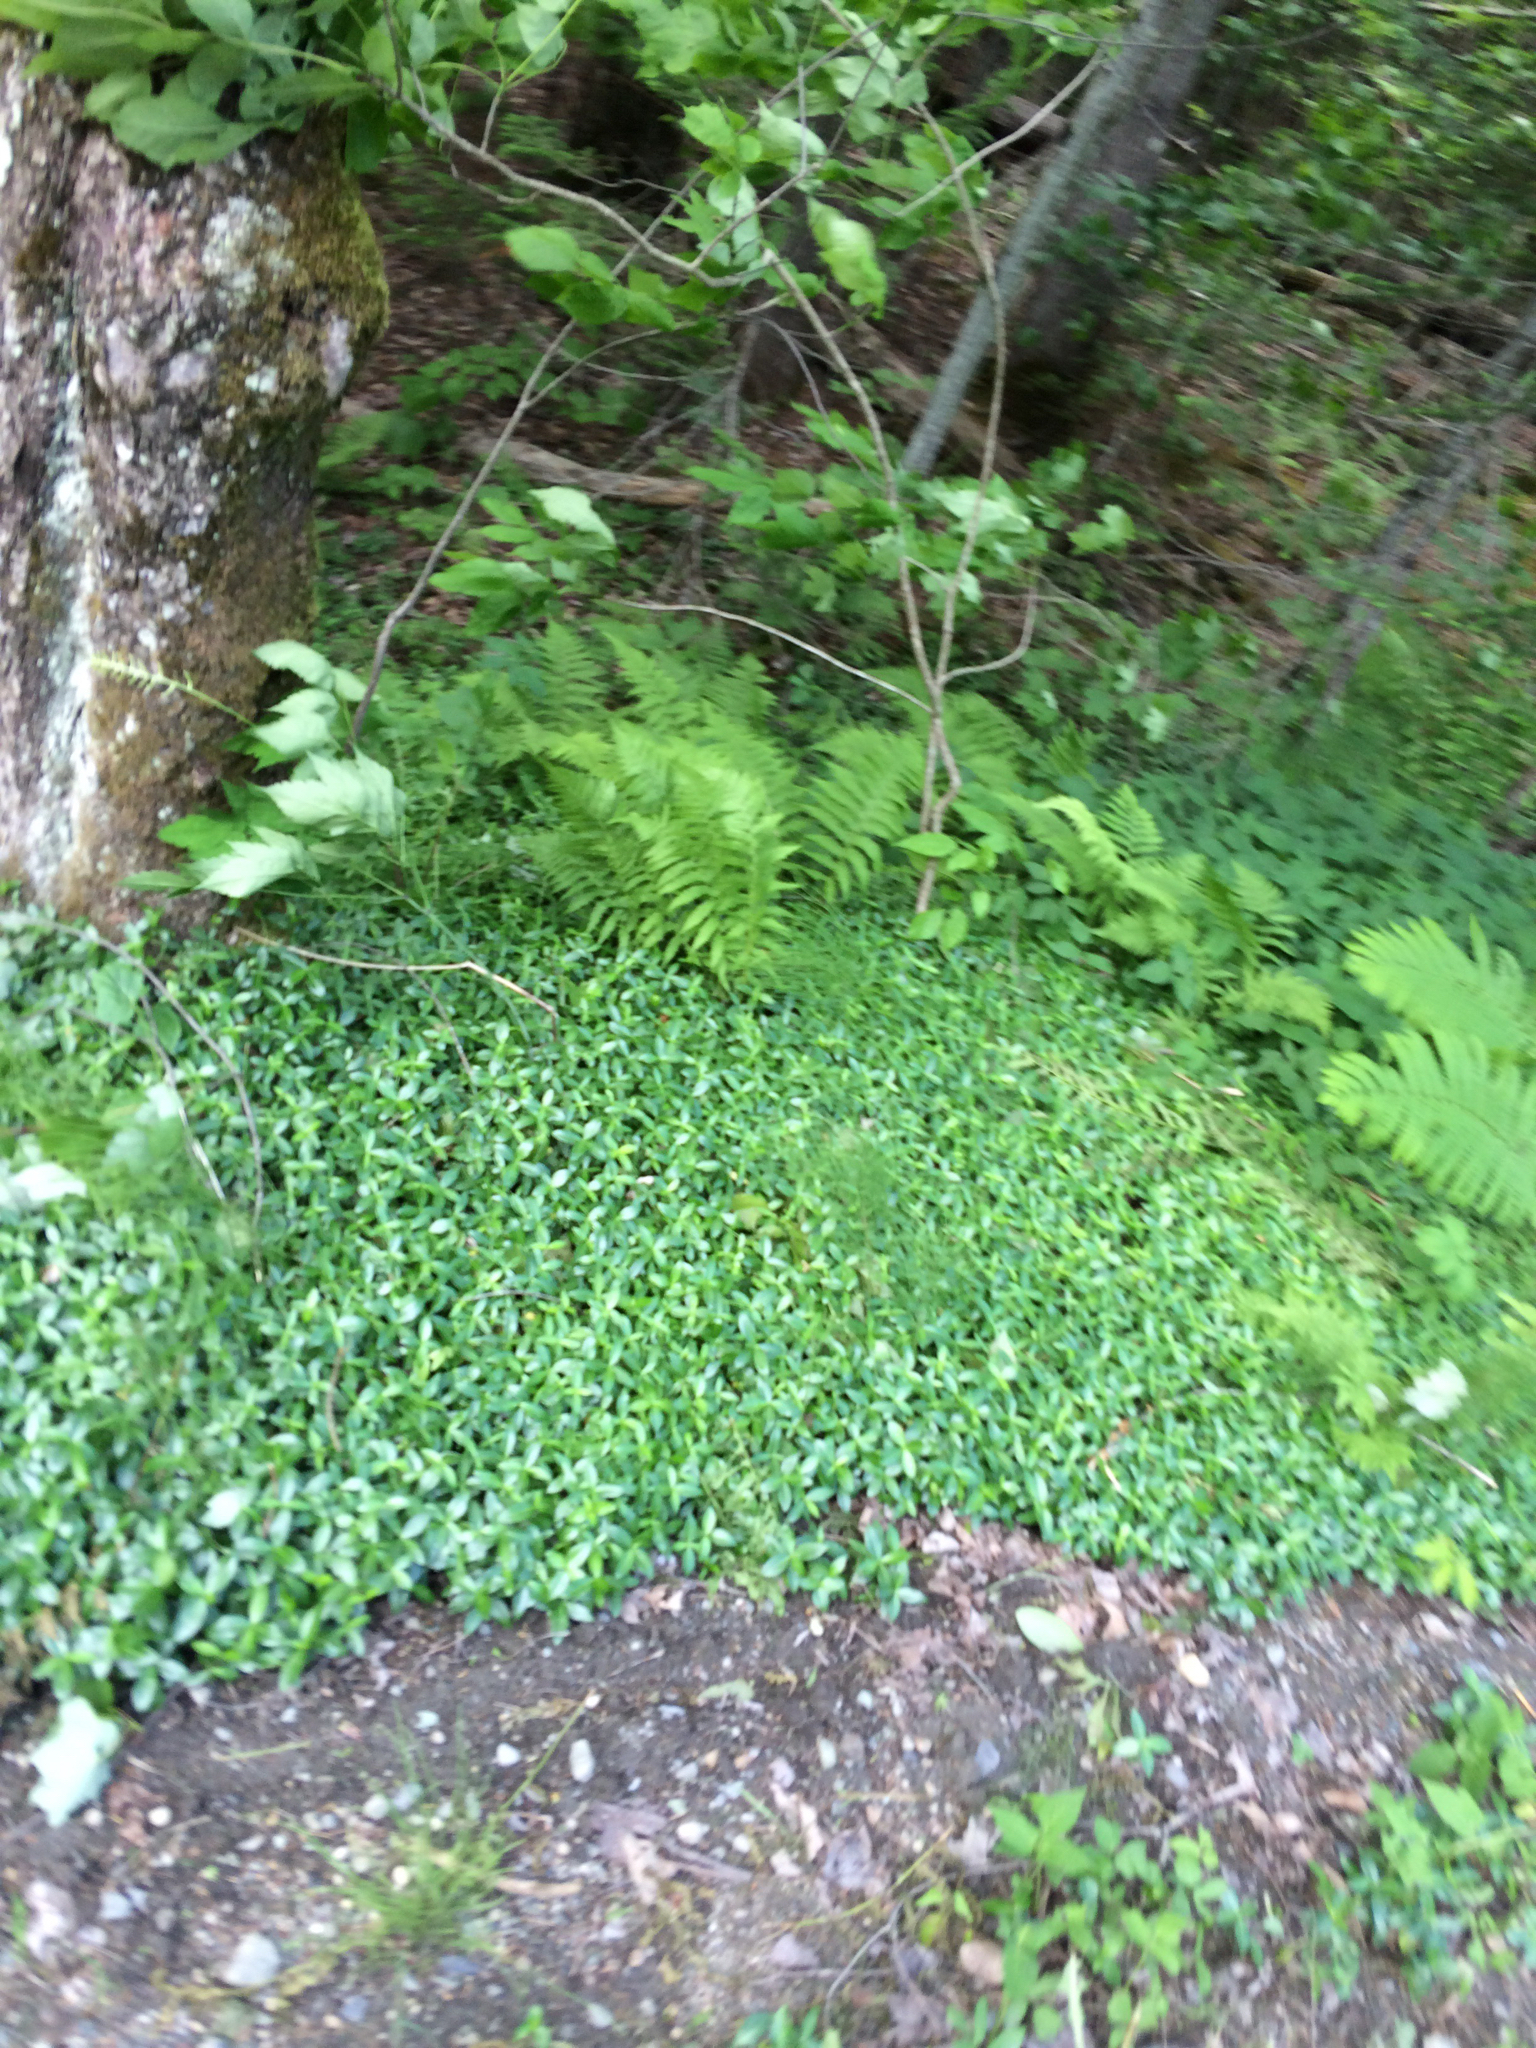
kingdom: Plantae
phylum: Tracheophyta
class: Magnoliopsida
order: Gentianales
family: Apocynaceae
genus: Vinca
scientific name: Vinca minor
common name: Lesser periwinkle
